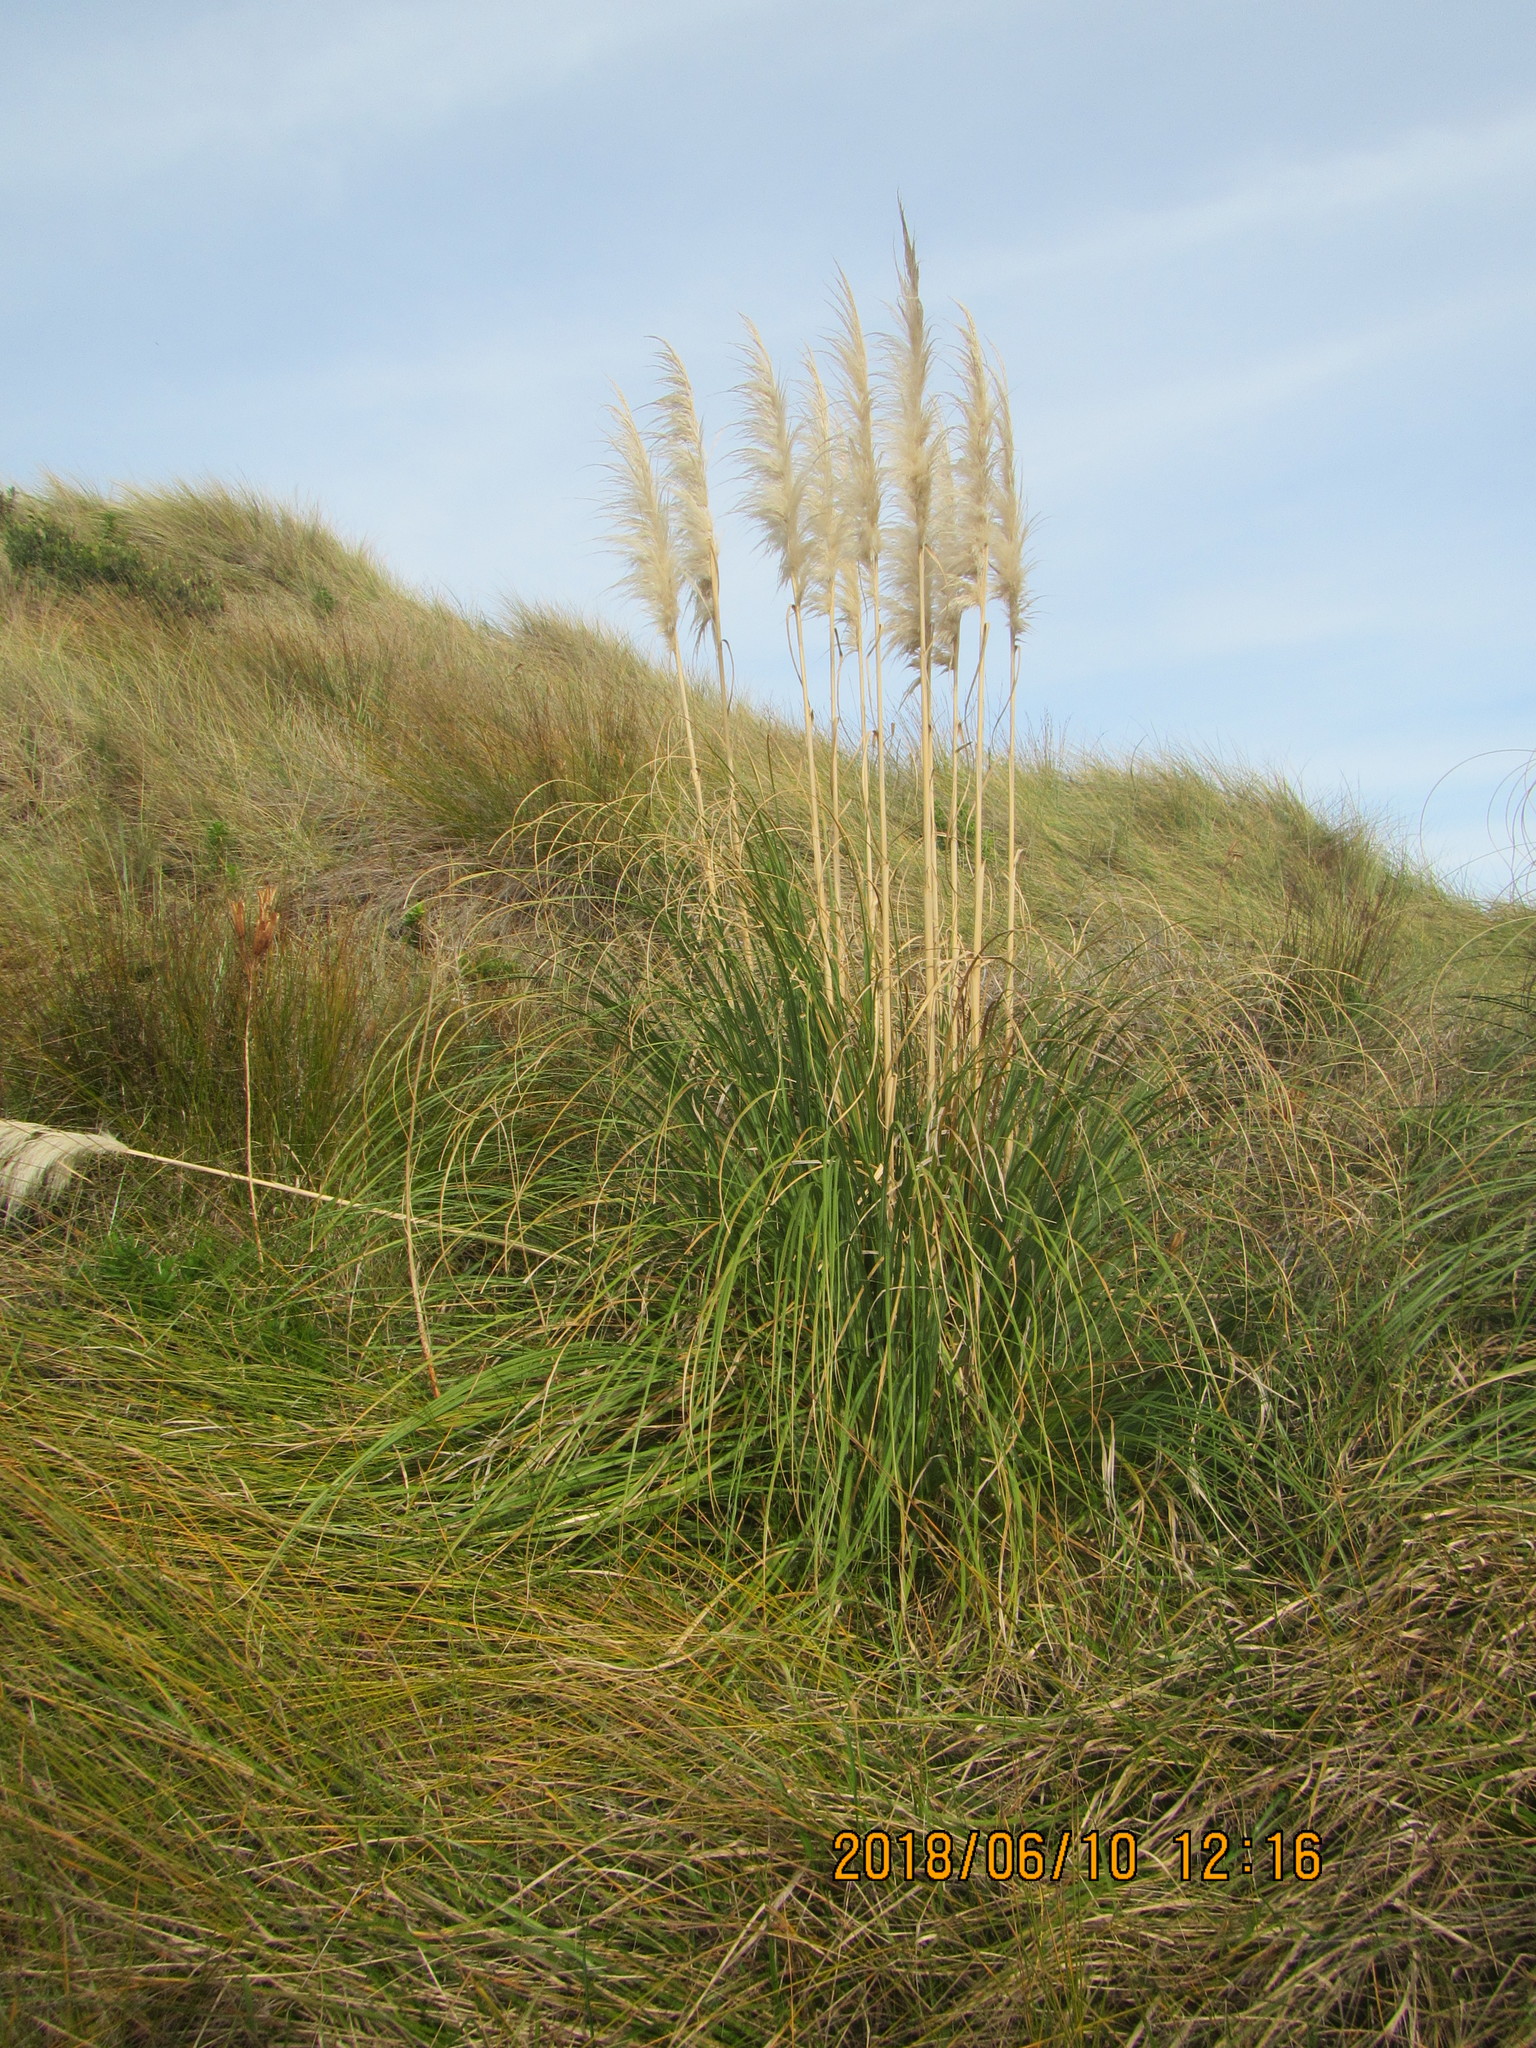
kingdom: Plantae
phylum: Tracheophyta
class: Liliopsida
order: Poales
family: Poaceae
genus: Cortaderia
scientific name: Cortaderia selloana
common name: Uruguayan pampas grass
